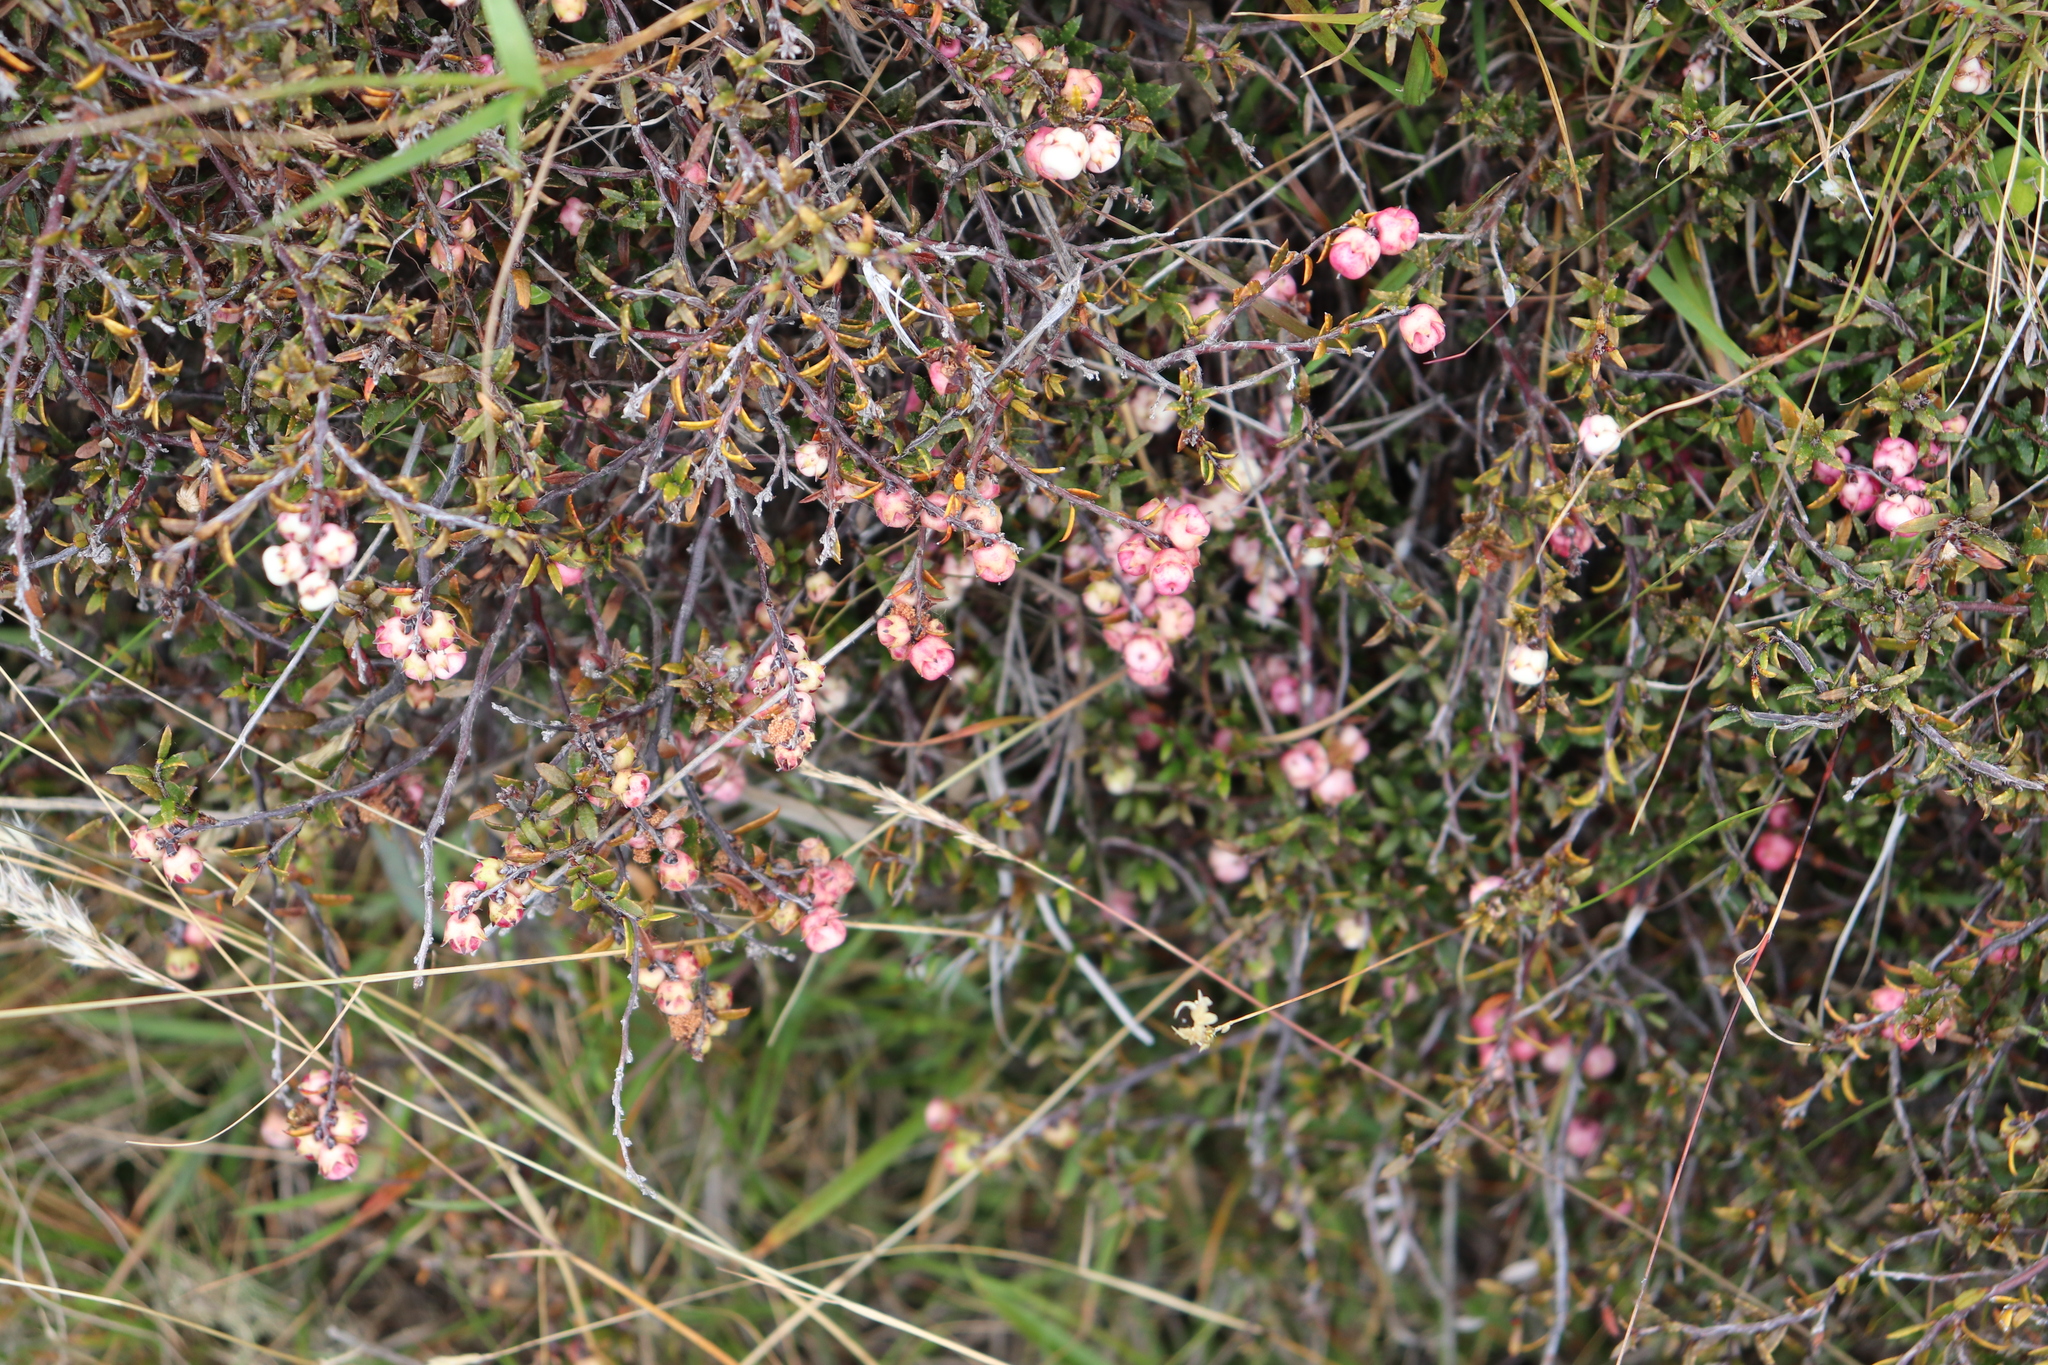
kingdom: Plantae
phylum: Tracheophyta
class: Magnoliopsida
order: Ericales
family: Ericaceae
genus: Gaultheria
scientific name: Gaultheria macrostigma
